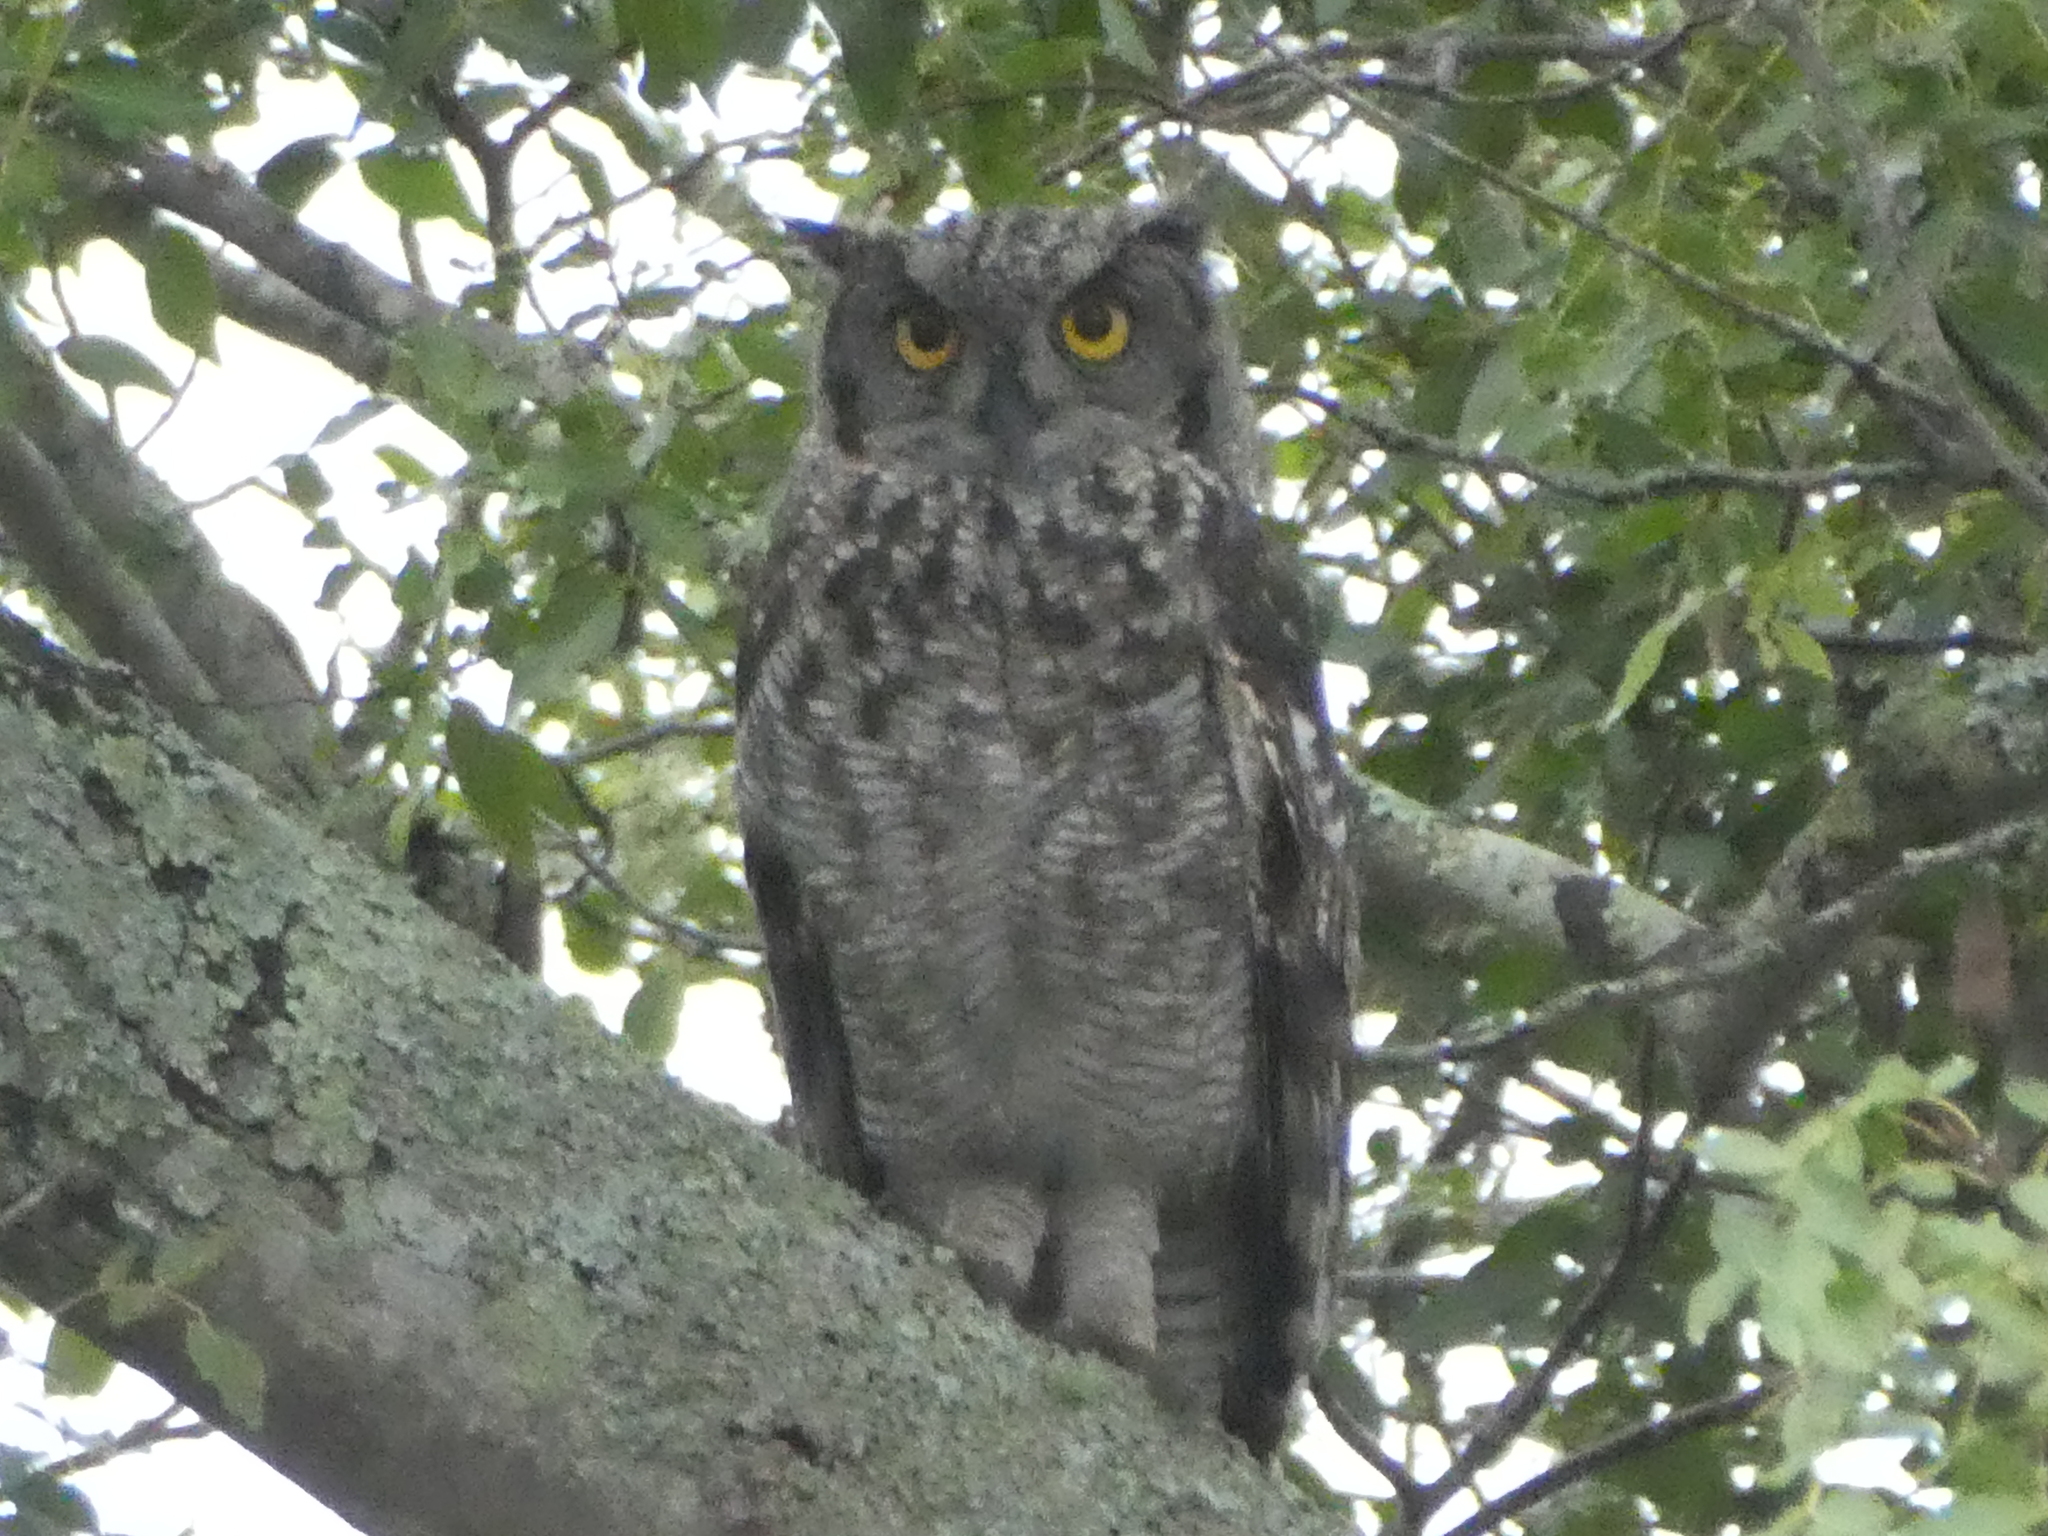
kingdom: Animalia
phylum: Chordata
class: Aves
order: Strigiformes
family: Strigidae
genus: Bubo
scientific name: Bubo africanus
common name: Spotted eagle-owl
